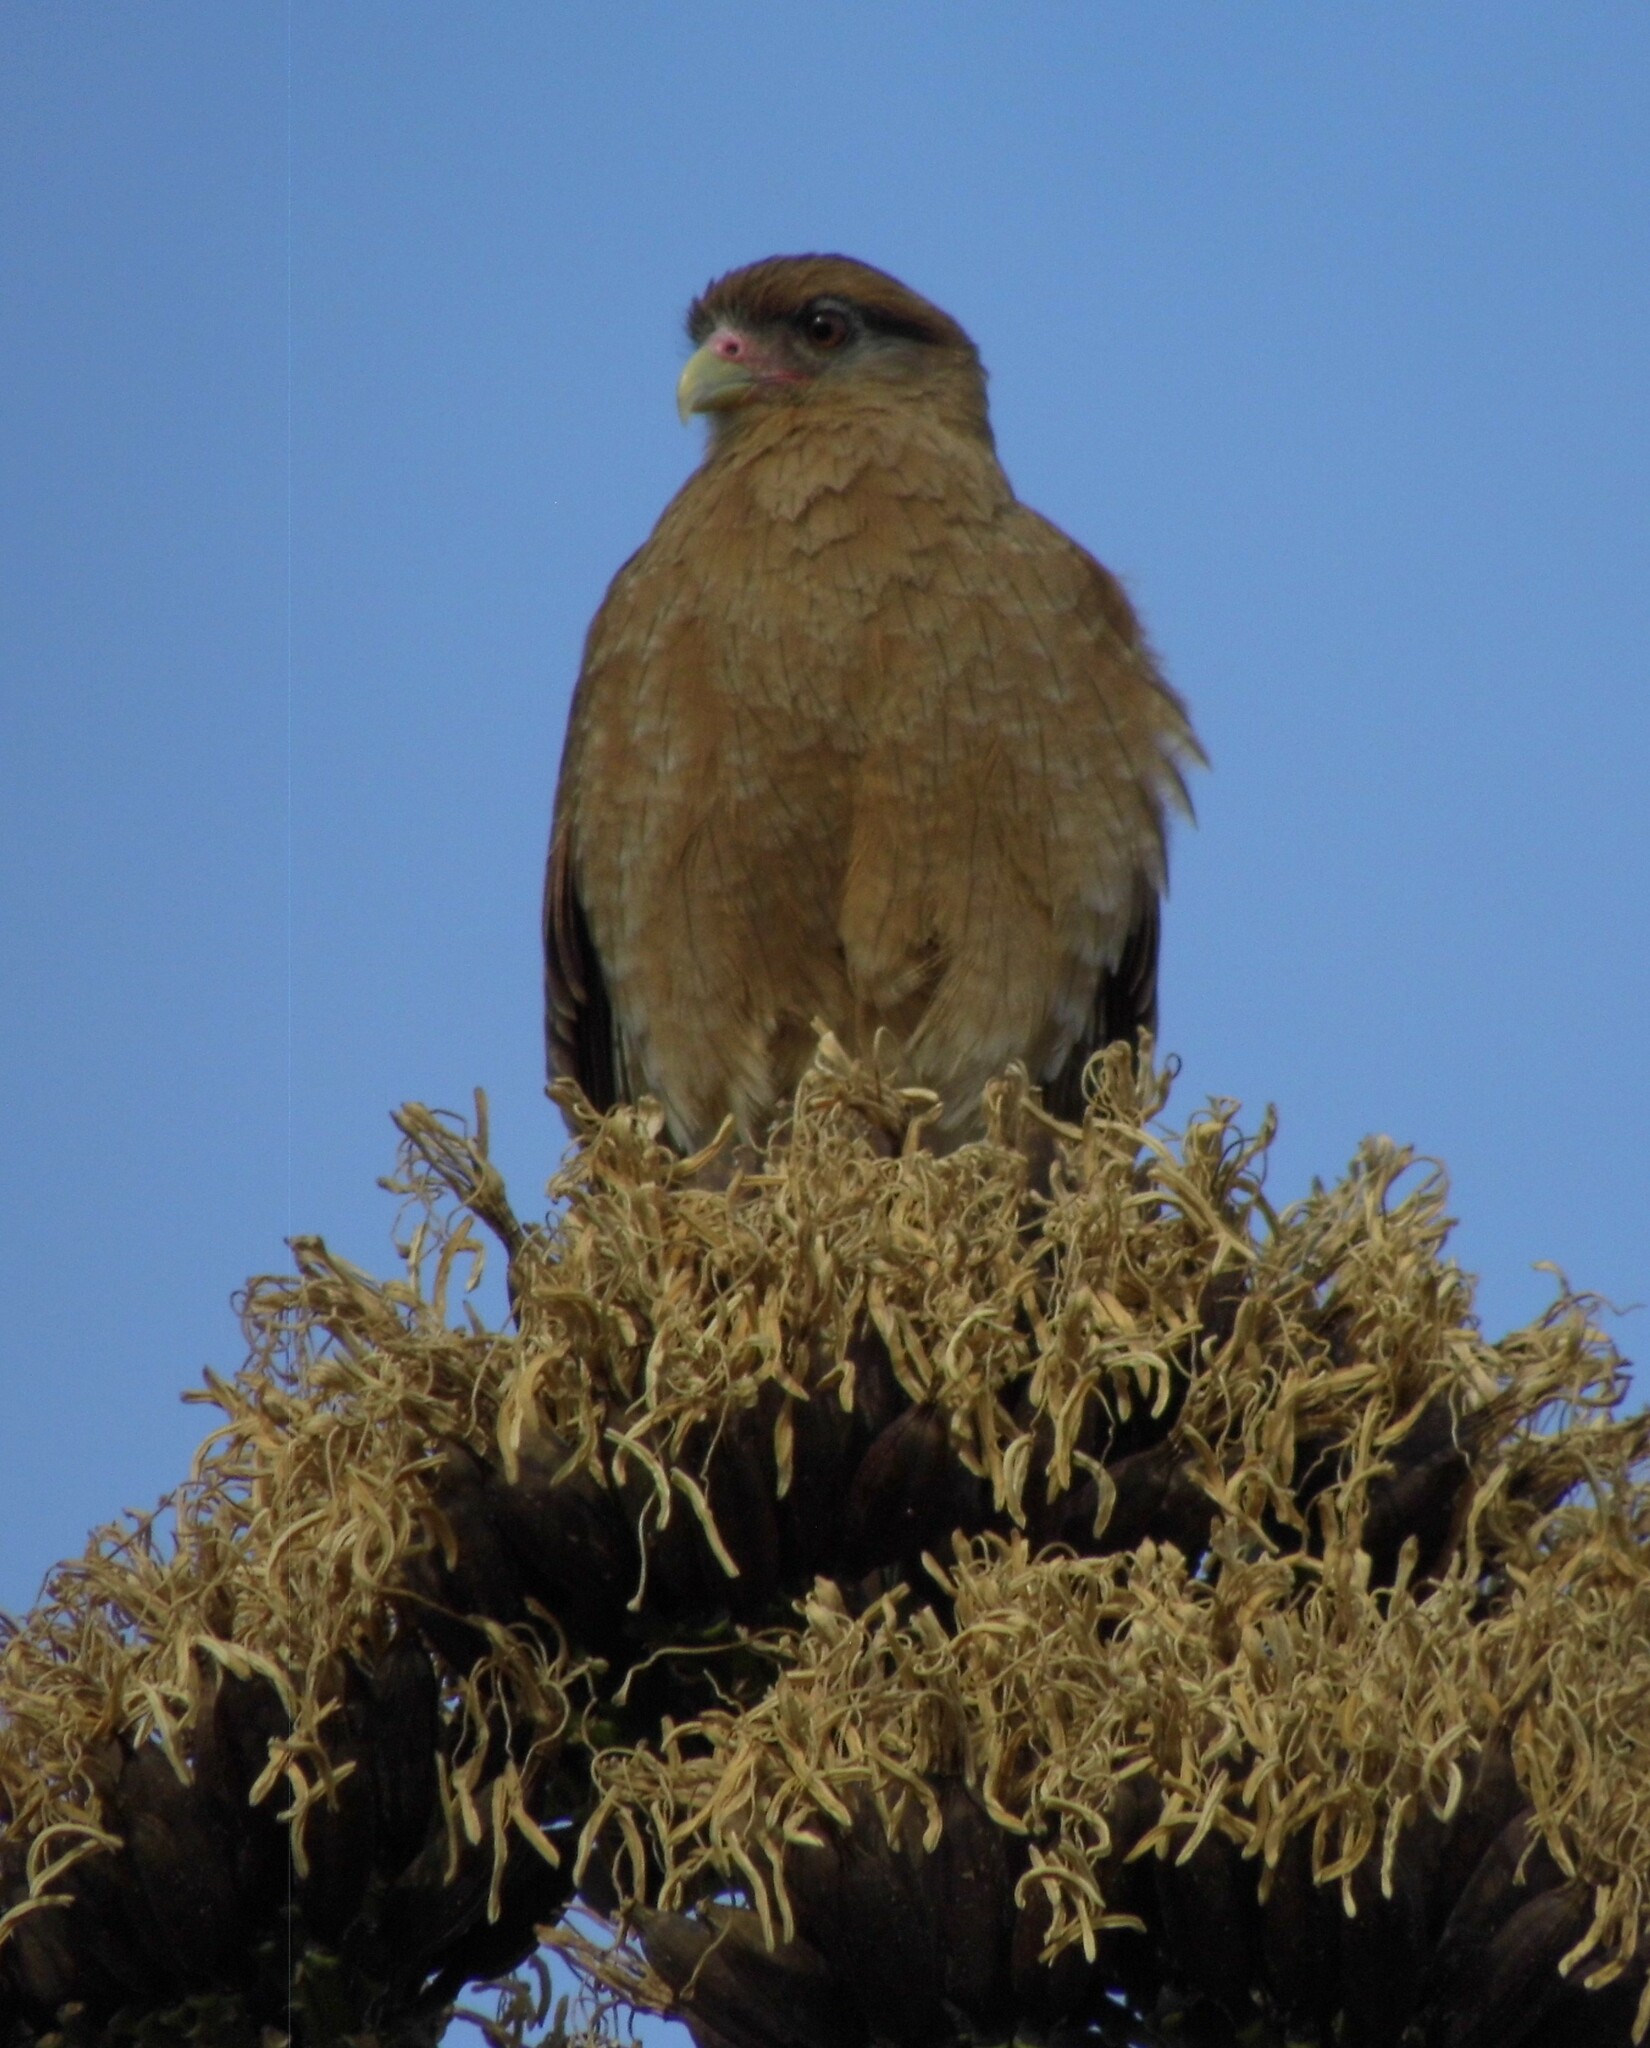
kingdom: Animalia
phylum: Chordata
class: Aves
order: Falconiformes
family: Falconidae
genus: Daptrius
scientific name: Daptrius
